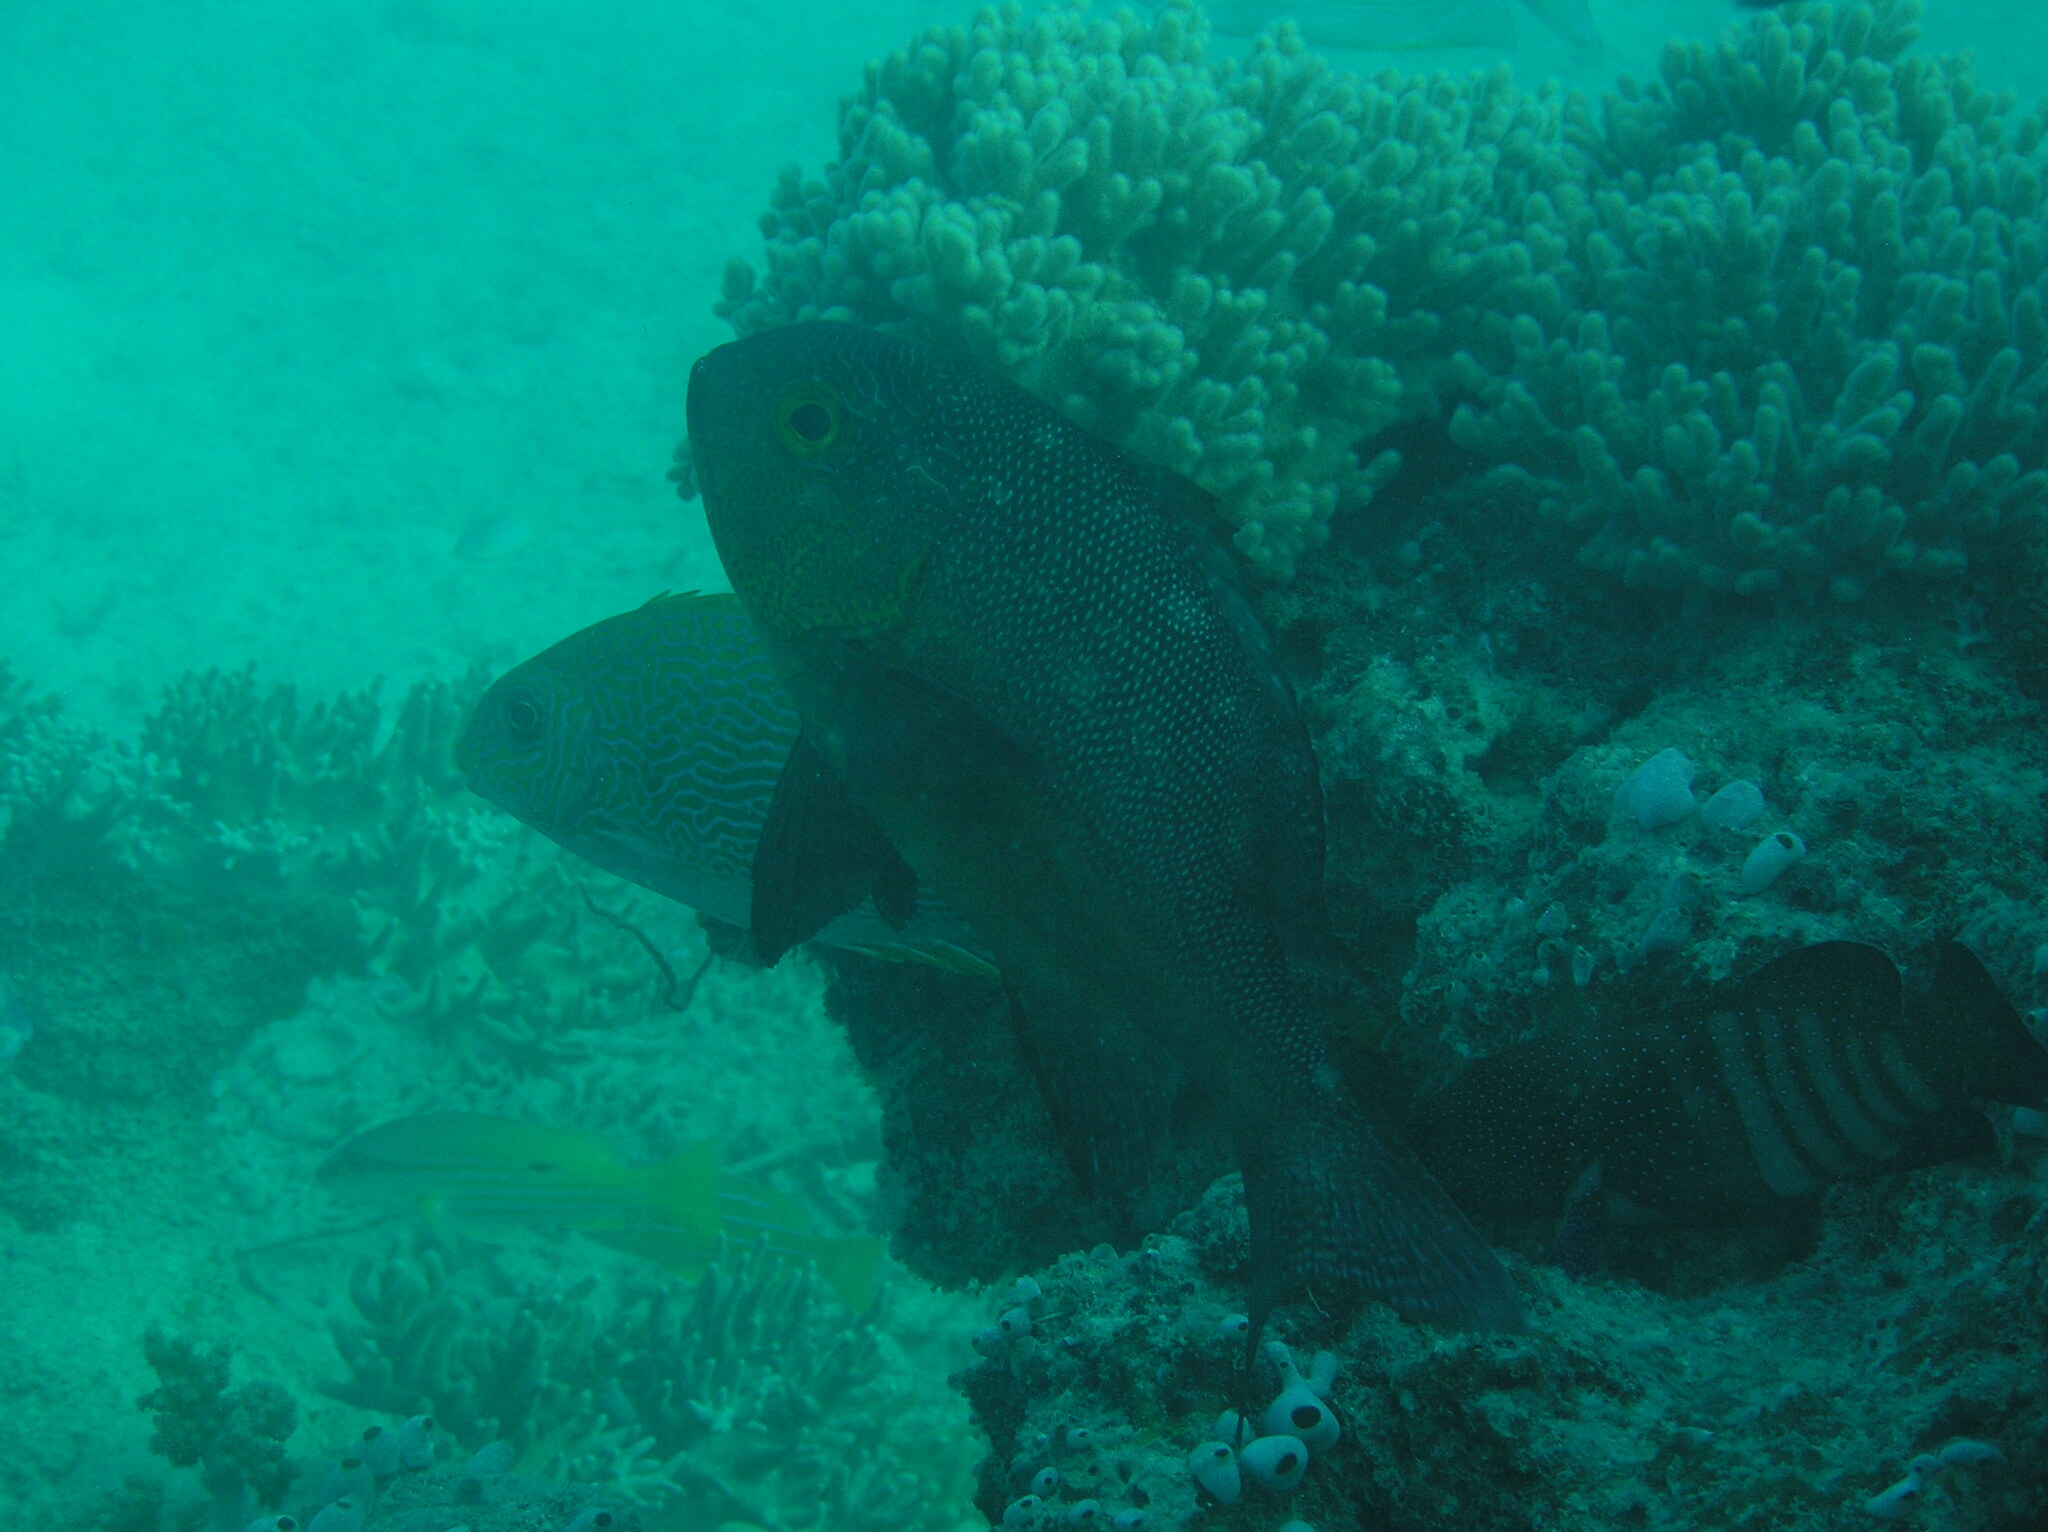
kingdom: Animalia
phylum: Chordata
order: Perciformes
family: Serranidae
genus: Cephalopholis
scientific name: Cephalopholis argus
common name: Peacock grouper
